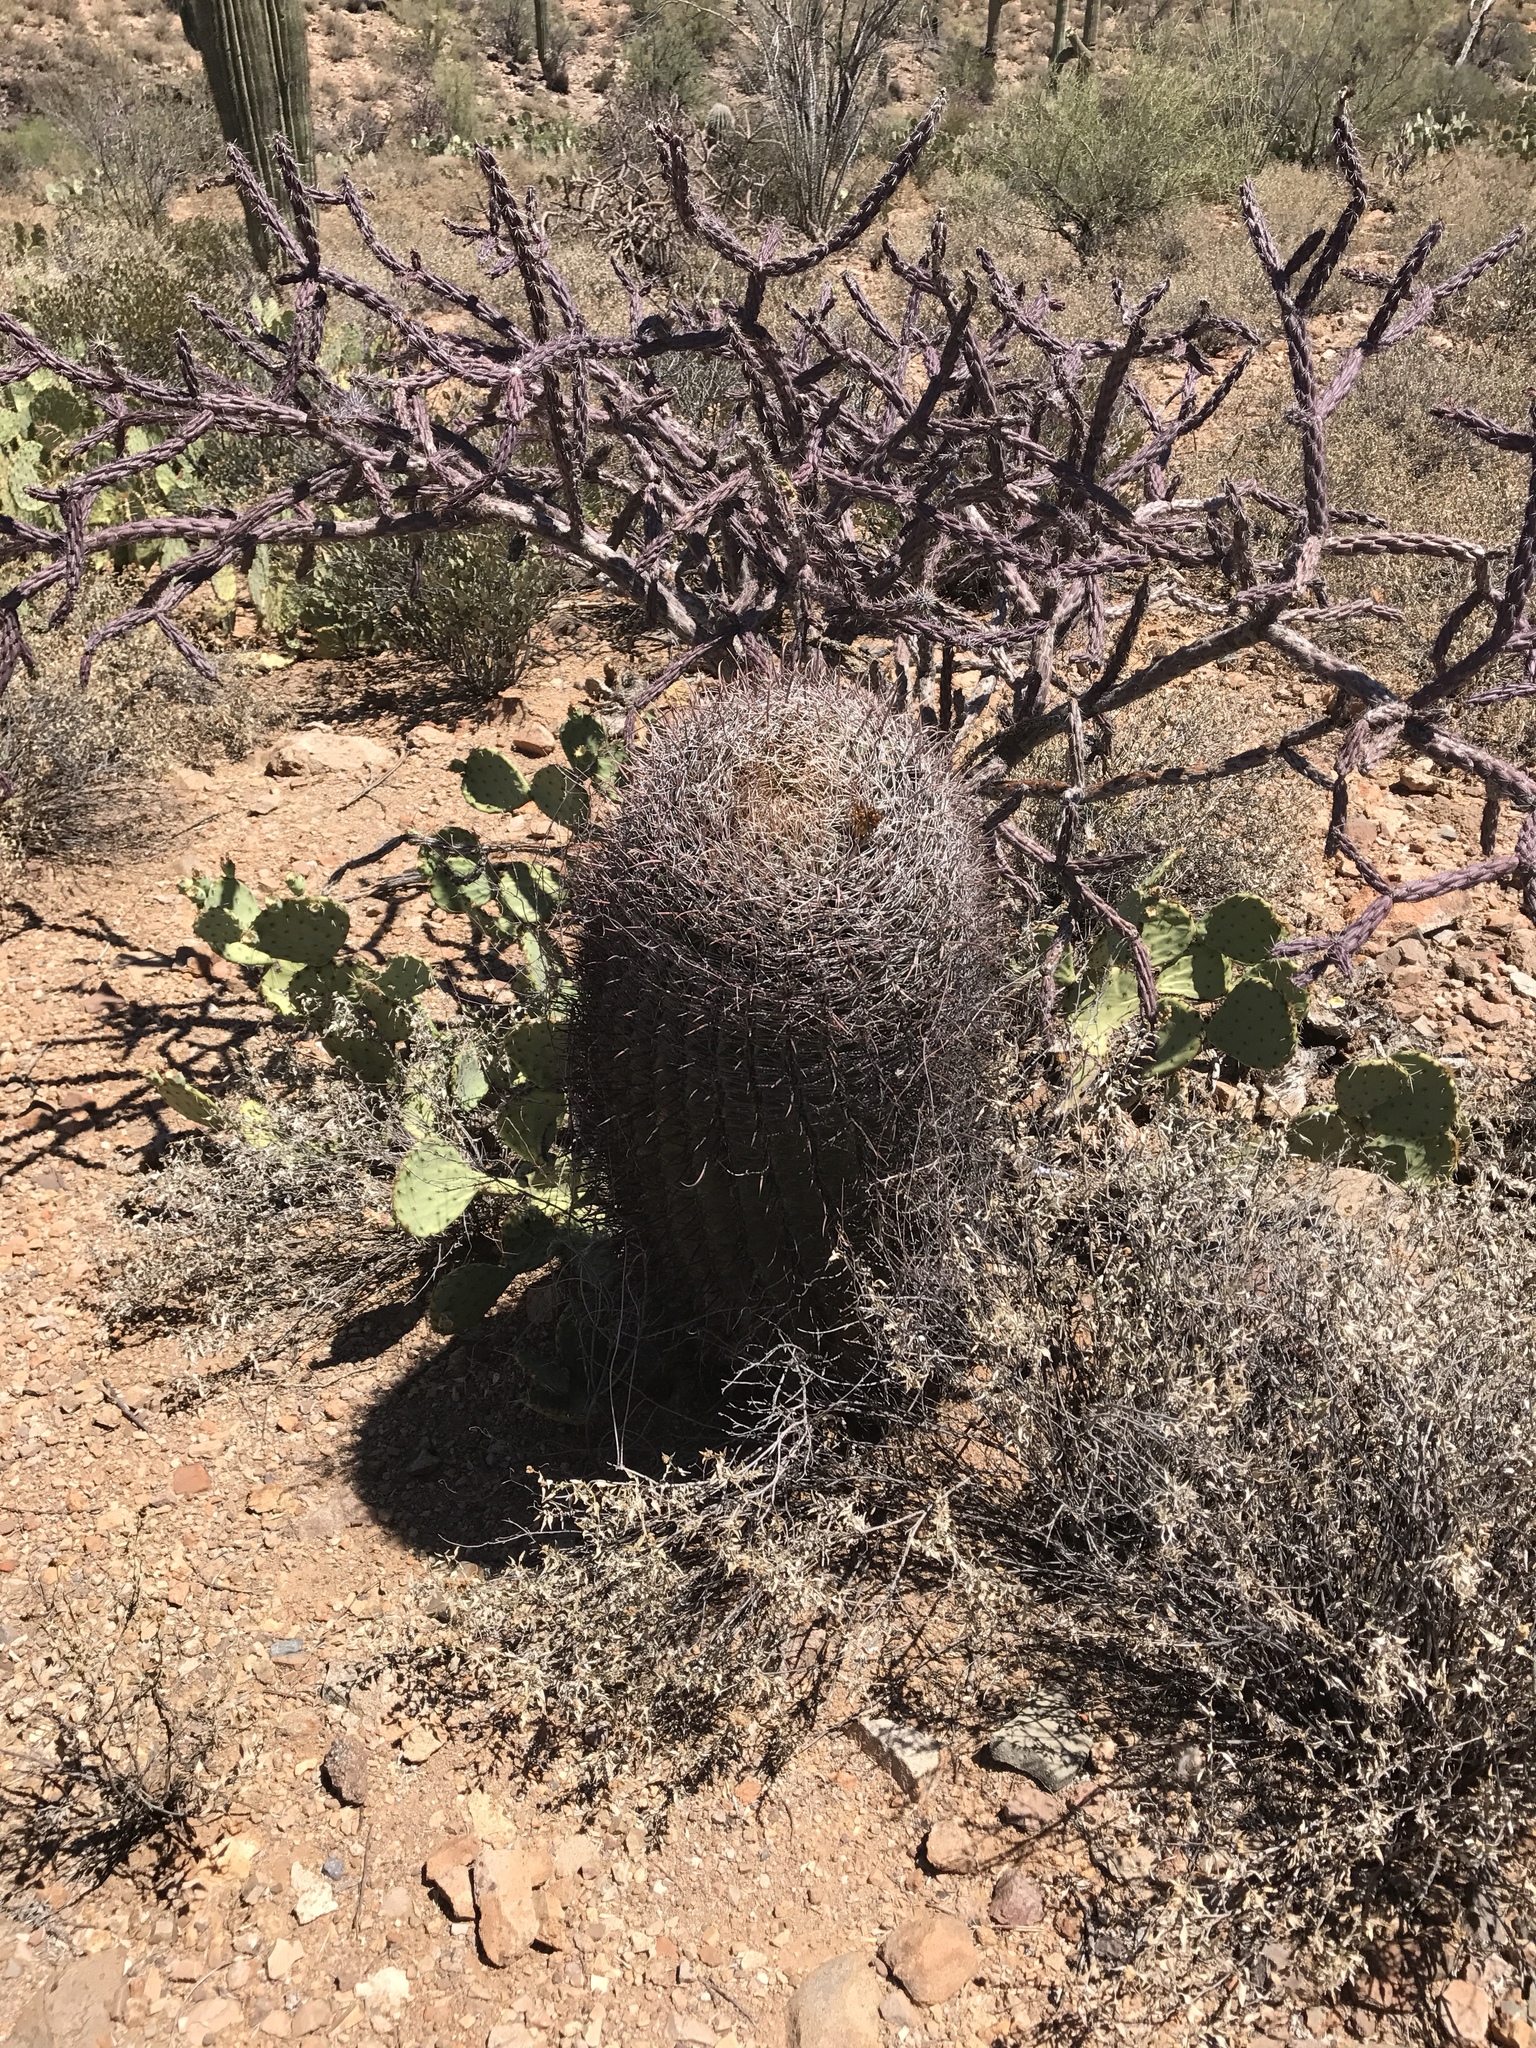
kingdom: Plantae
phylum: Tracheophyta
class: Magnoliopsida
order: Caryophyllales
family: Cactaceae
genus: Ferocactus
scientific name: Ferocactus wislizeni
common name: Candy barrel cactus
